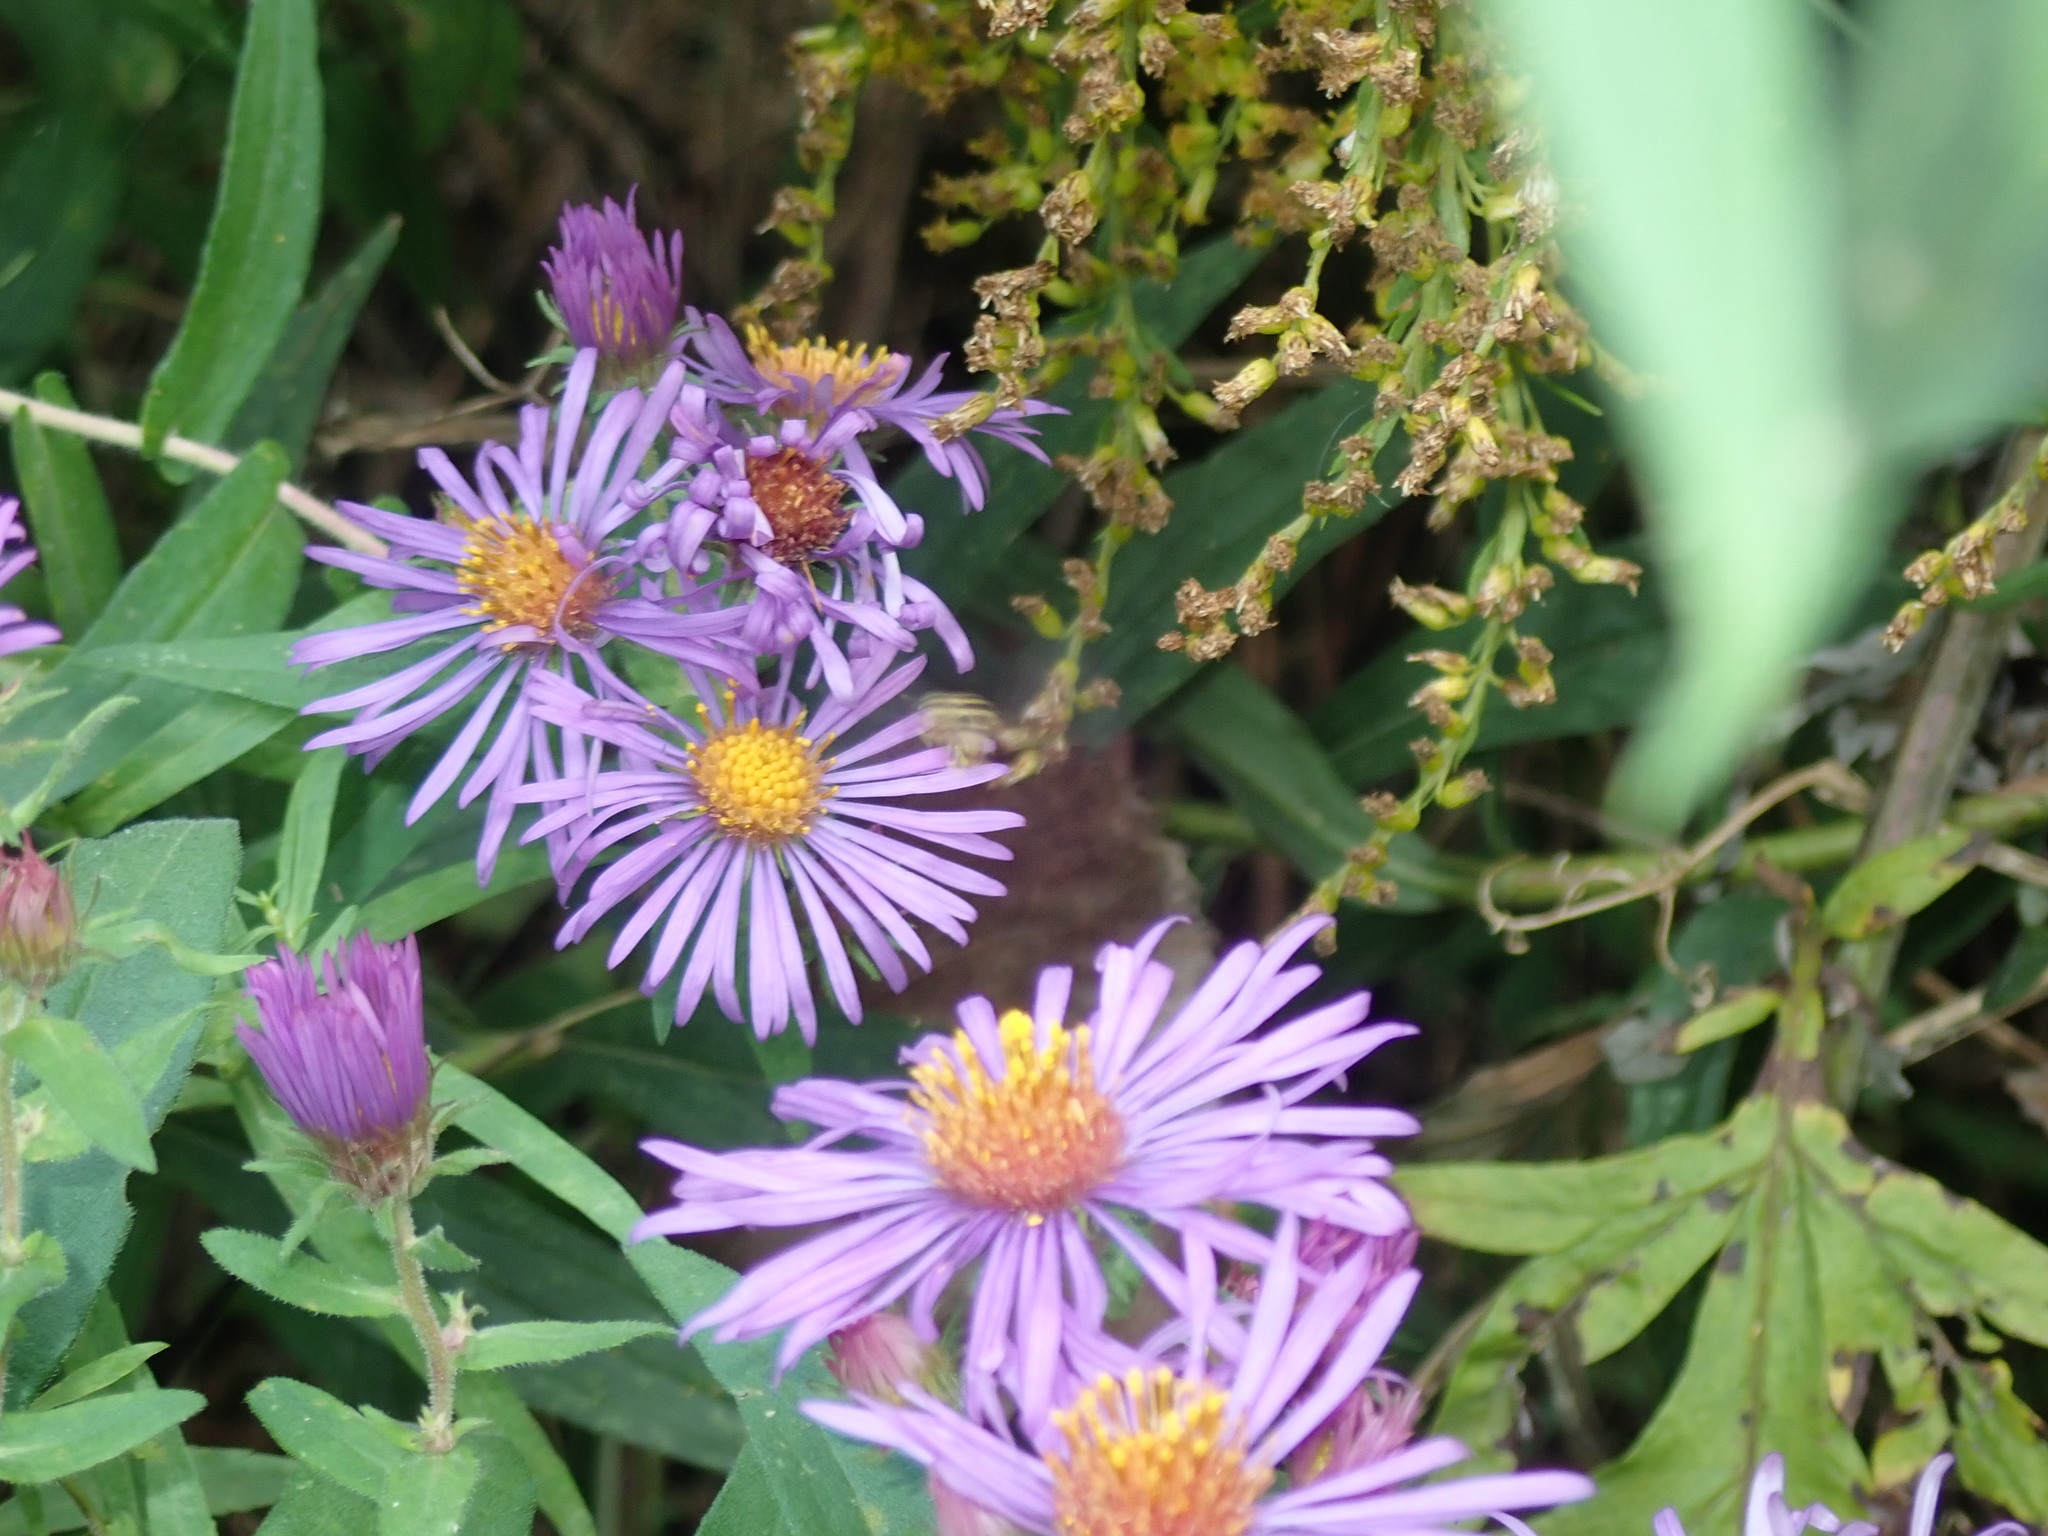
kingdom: Plantae
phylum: Tracheophyta
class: Magnoliopsida
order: Asterales
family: Asteraceae
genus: Symphyotrichum
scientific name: Symphyotrichum novae-angliae
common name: Michaelmas daisy
